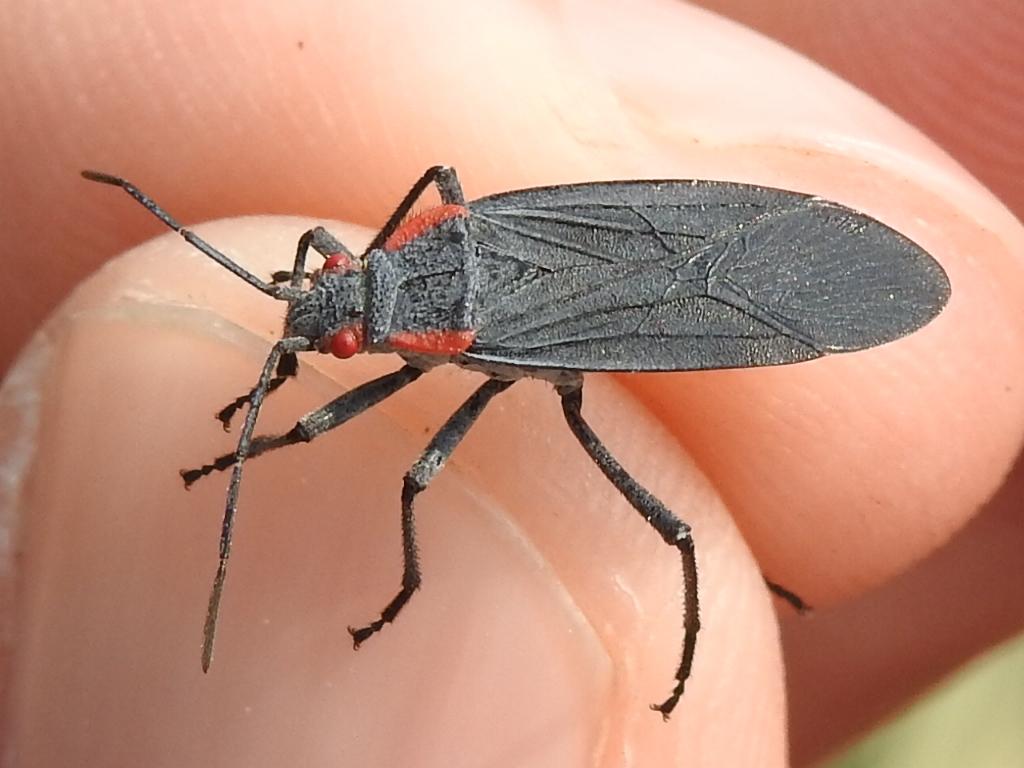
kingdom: Animalia
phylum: Arthropoda
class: Insecta
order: Hemiptera
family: Rhopalidae
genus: Jadera
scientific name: Jadera haematoloma
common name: Red-shouldered bug
